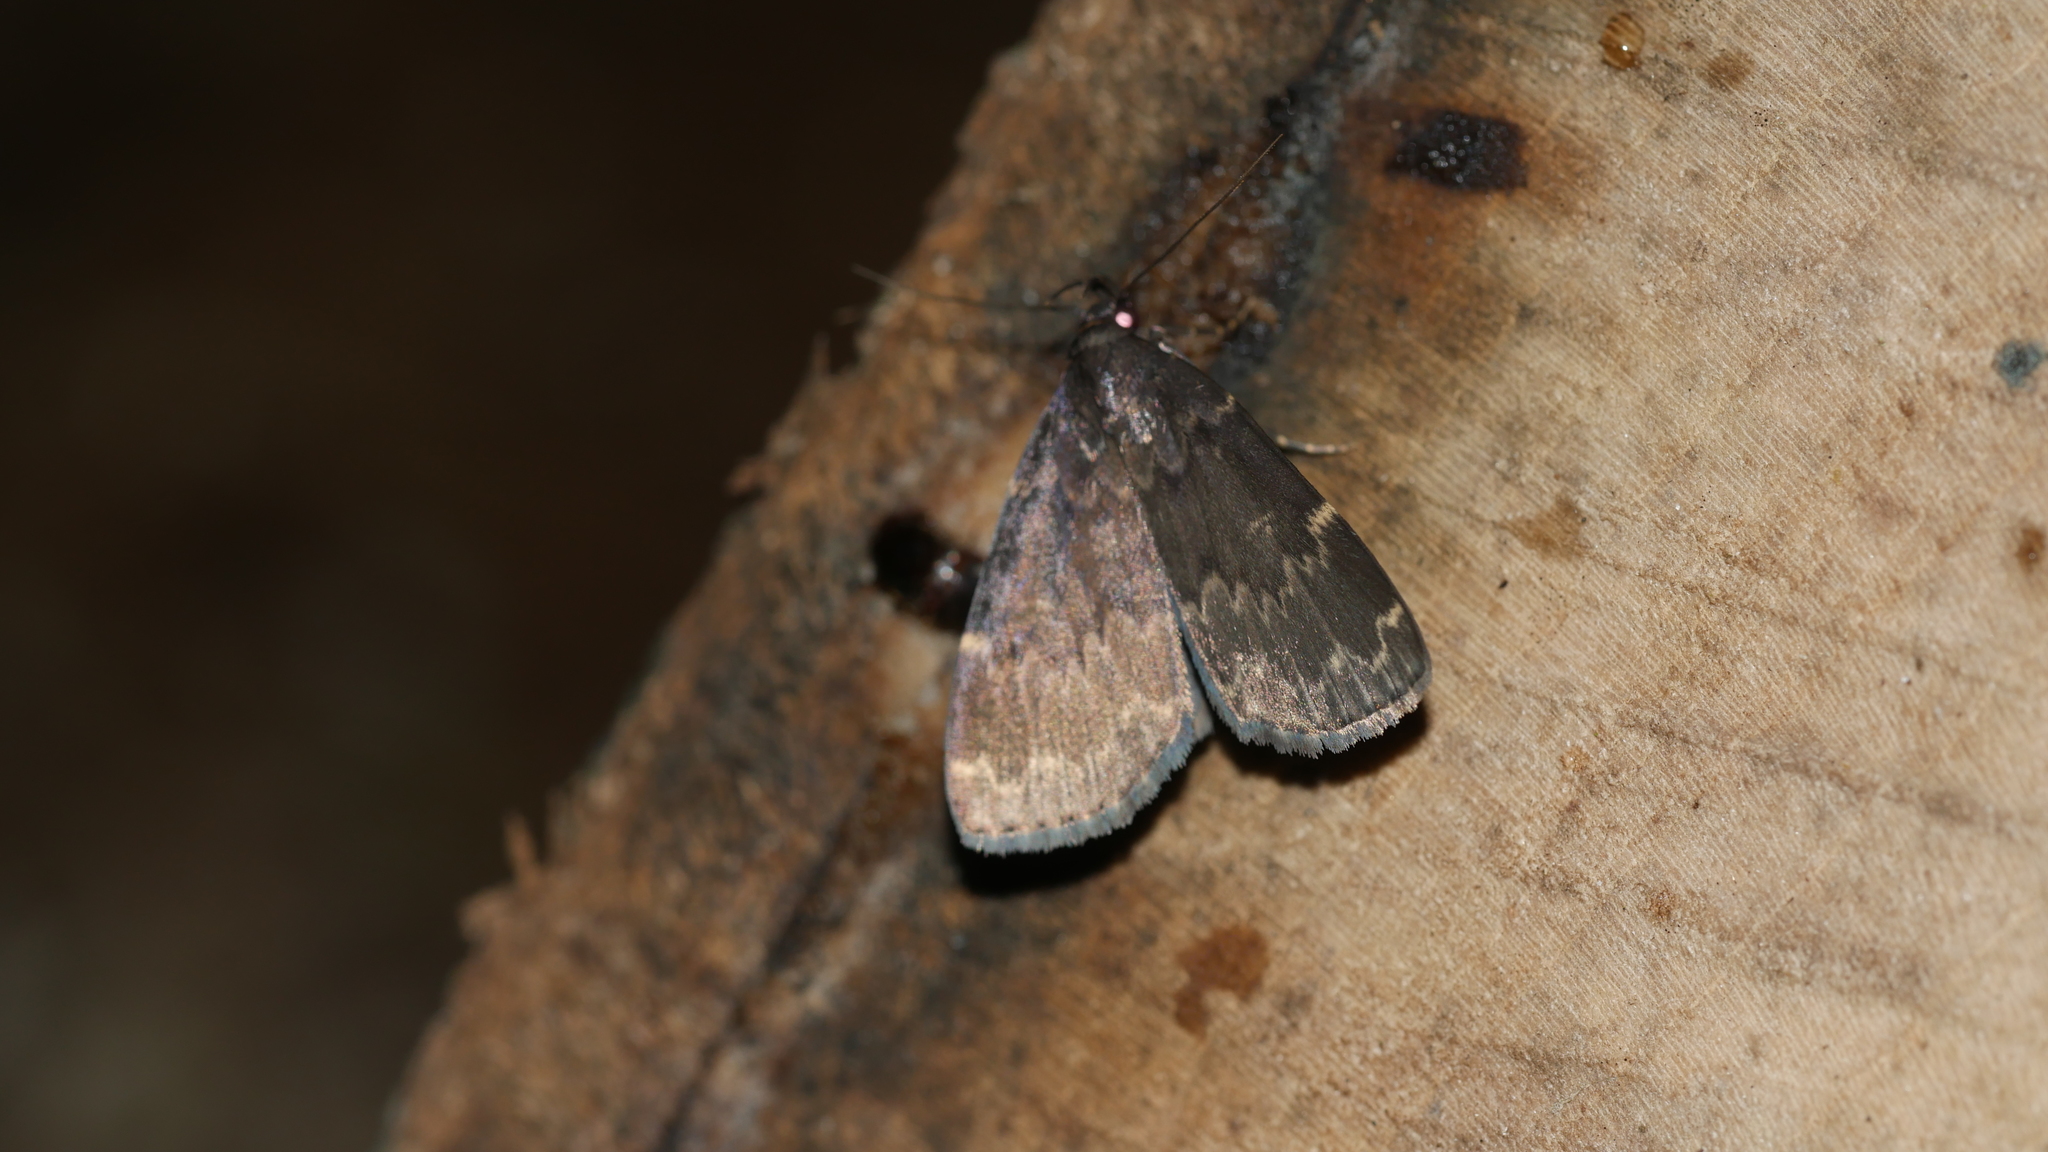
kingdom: Animalia
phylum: Arthropoda
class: Insecta
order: Lepidoptera
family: Erebidae
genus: Idia
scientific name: Idia lubricalis
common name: Twin-striped tabby
